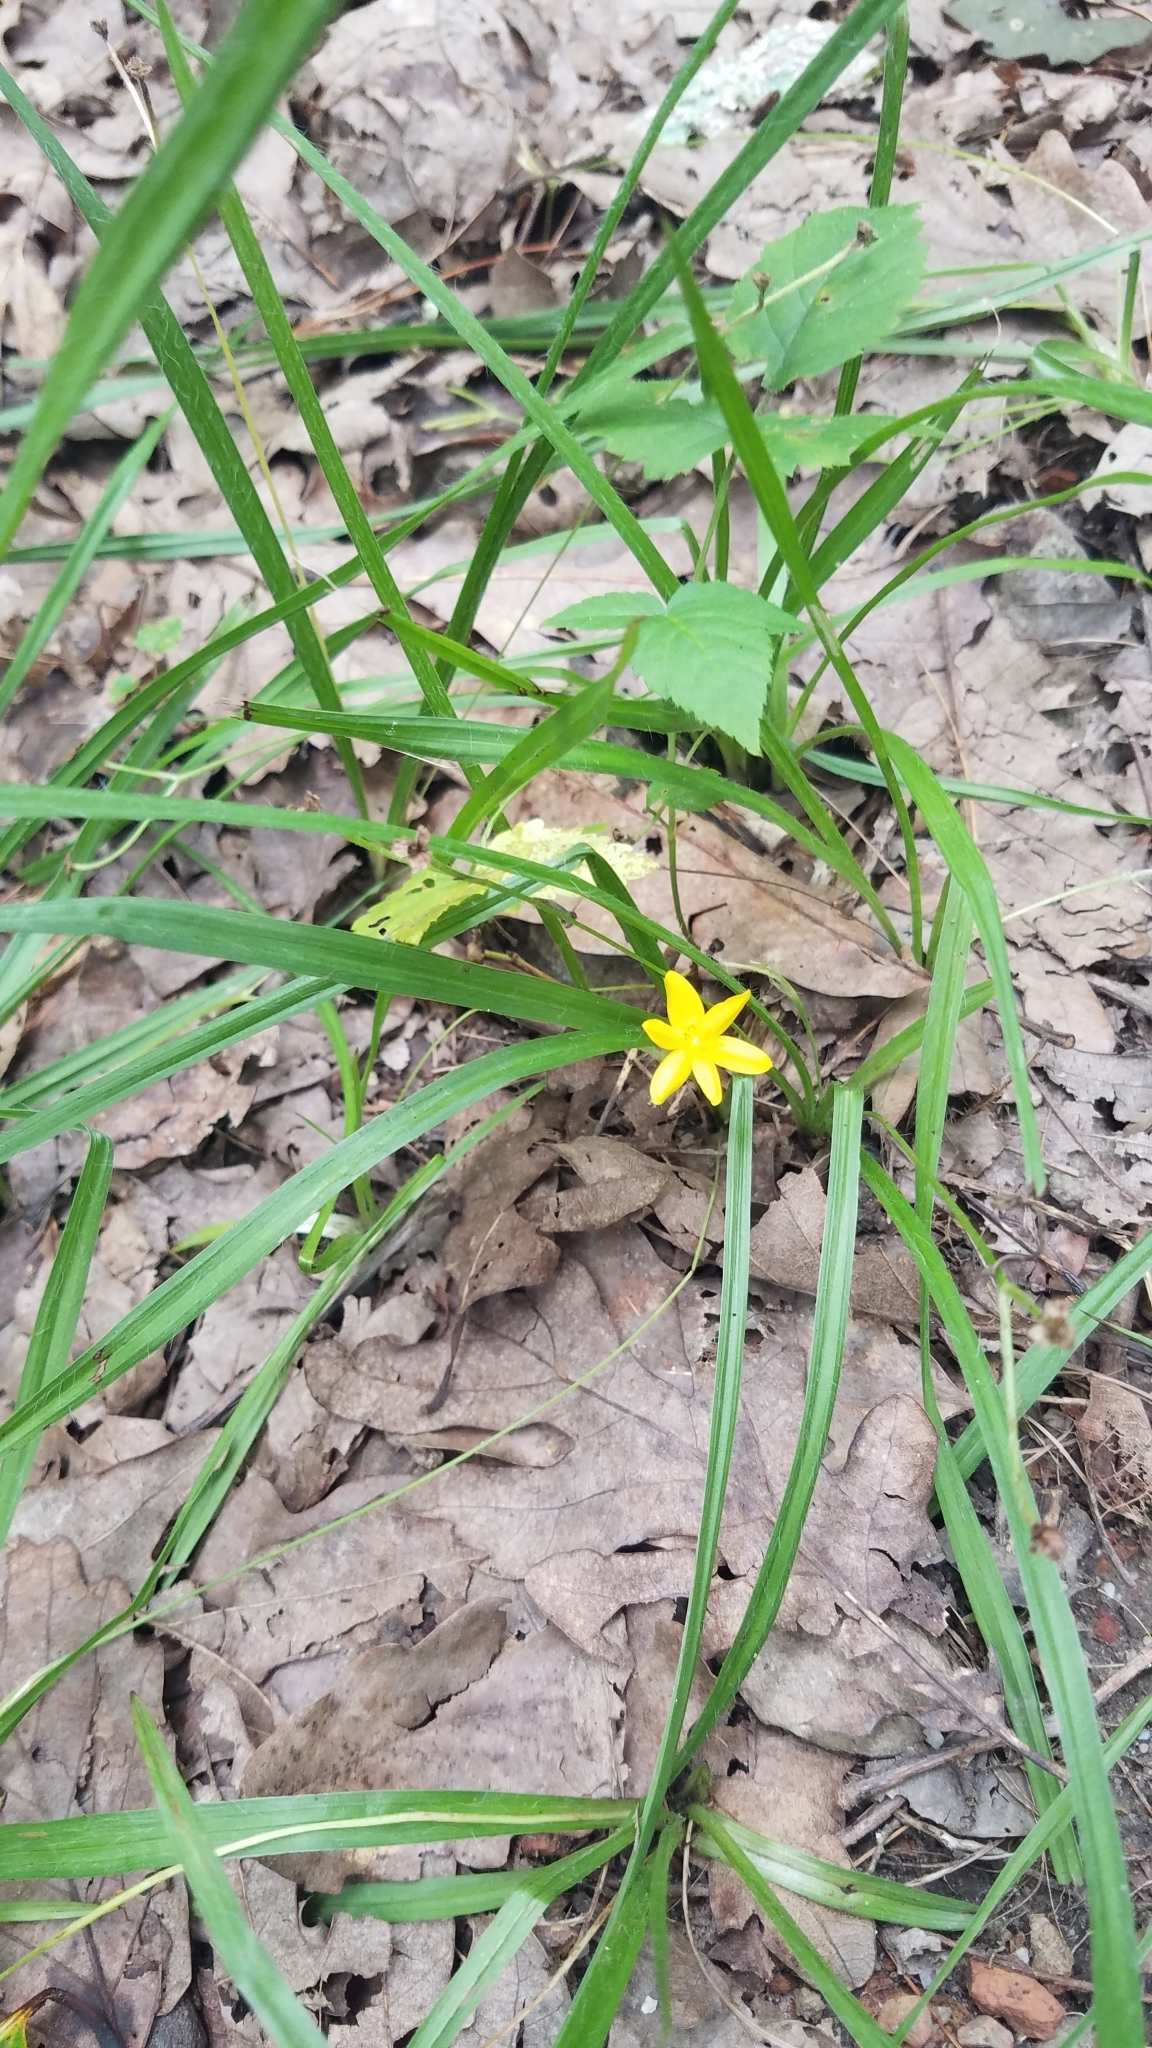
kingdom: Plantae
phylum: Tracheophyta
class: Liliopsida
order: Asparagales
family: Hypoxidaceae
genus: Hypoxis
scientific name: Hypoxis hirsuta
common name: Common goldstar
